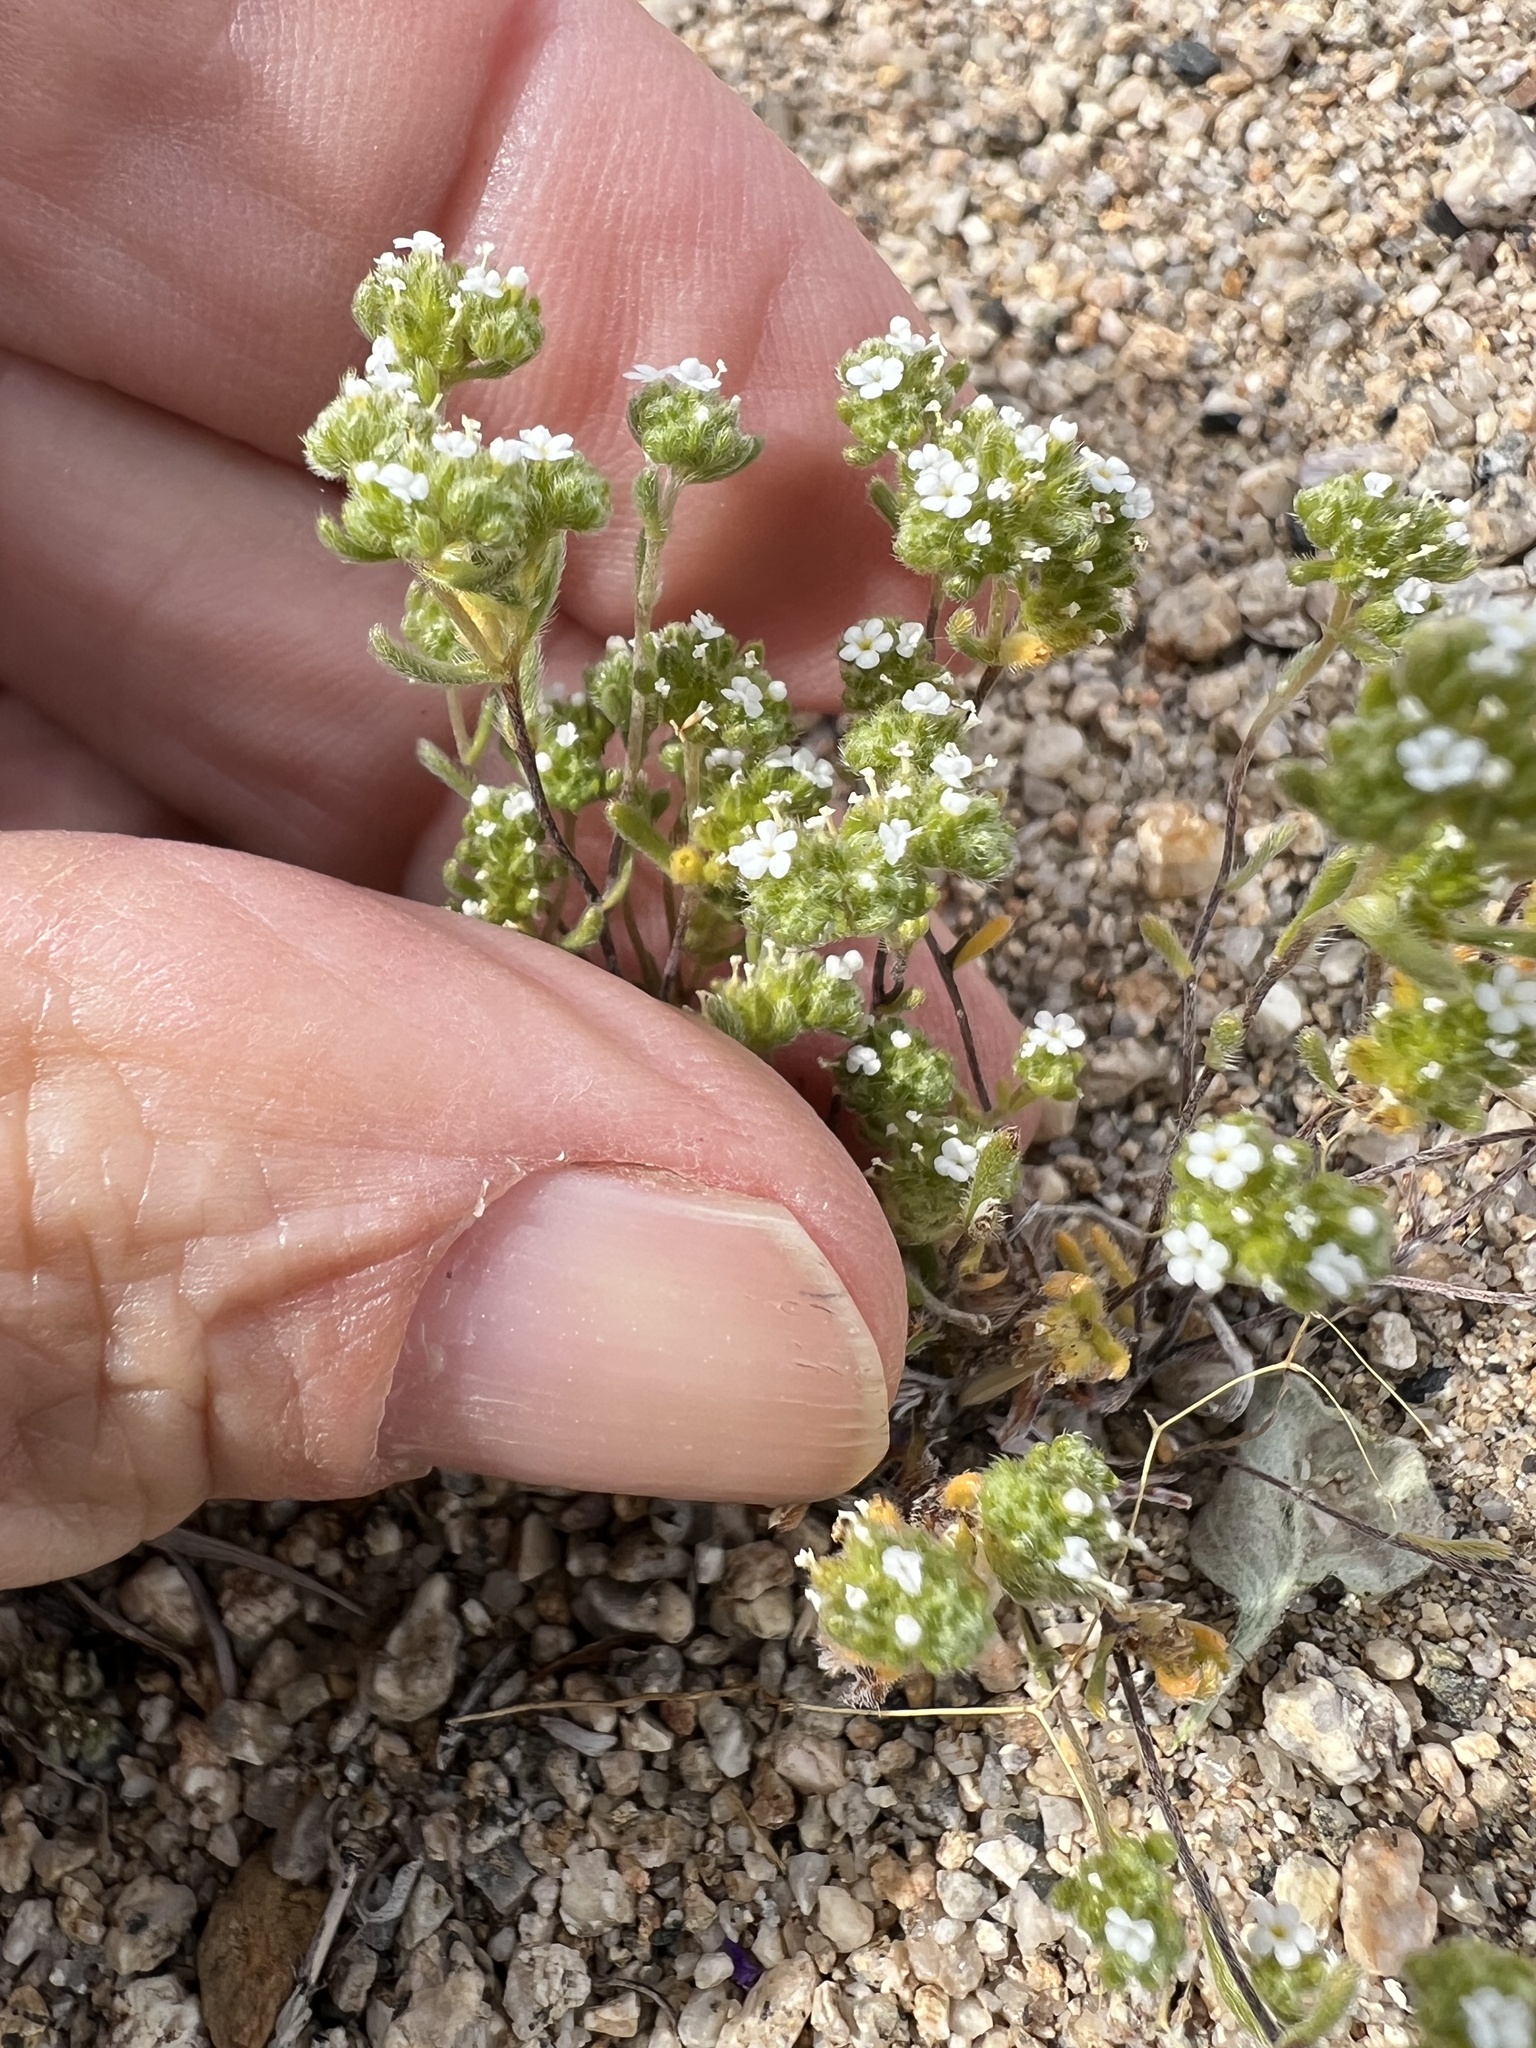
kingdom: Plantae
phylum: Tracheophyta
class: Magnoliopsida
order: Boraginales
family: Boraginaceae
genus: Eremocarya
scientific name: Eremocarya micrantha
